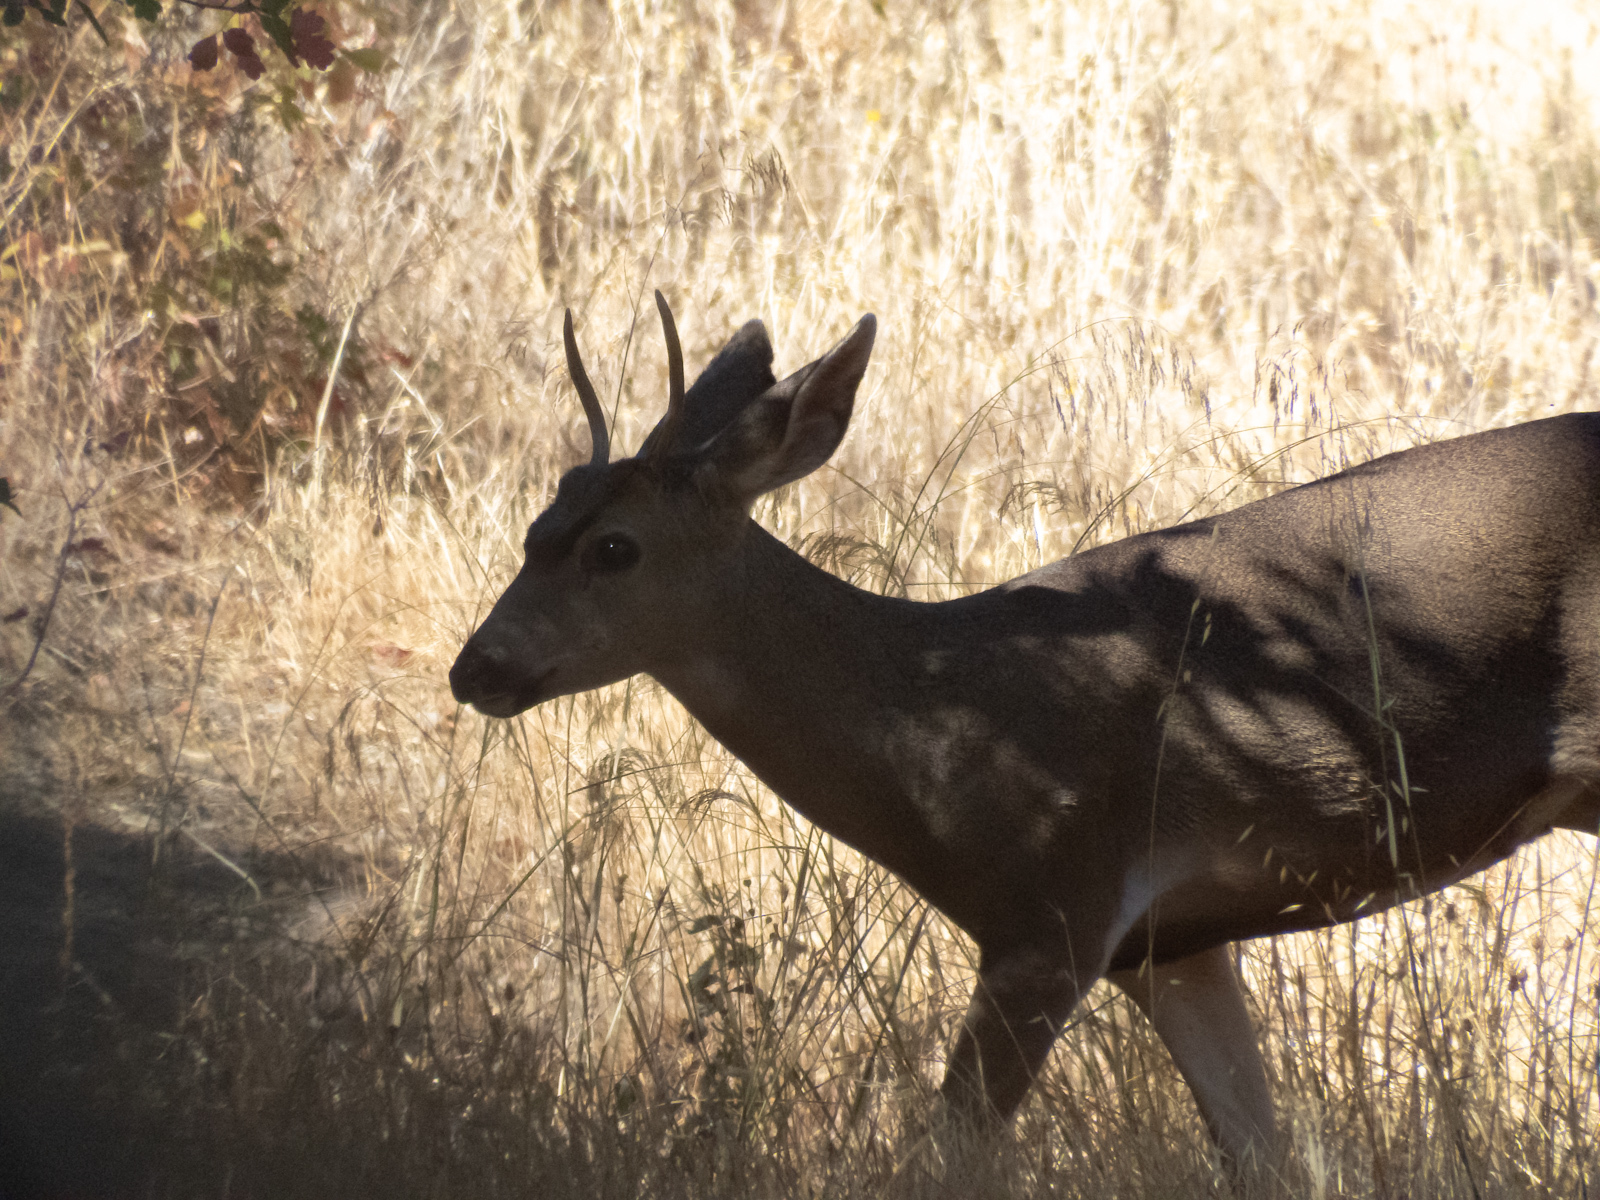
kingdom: Animalia
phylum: Chordata
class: Mammalia
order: Artiodactyla
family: Cervidae
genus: Odocoileus
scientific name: Odocoileus hemionus
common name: Mule deer
